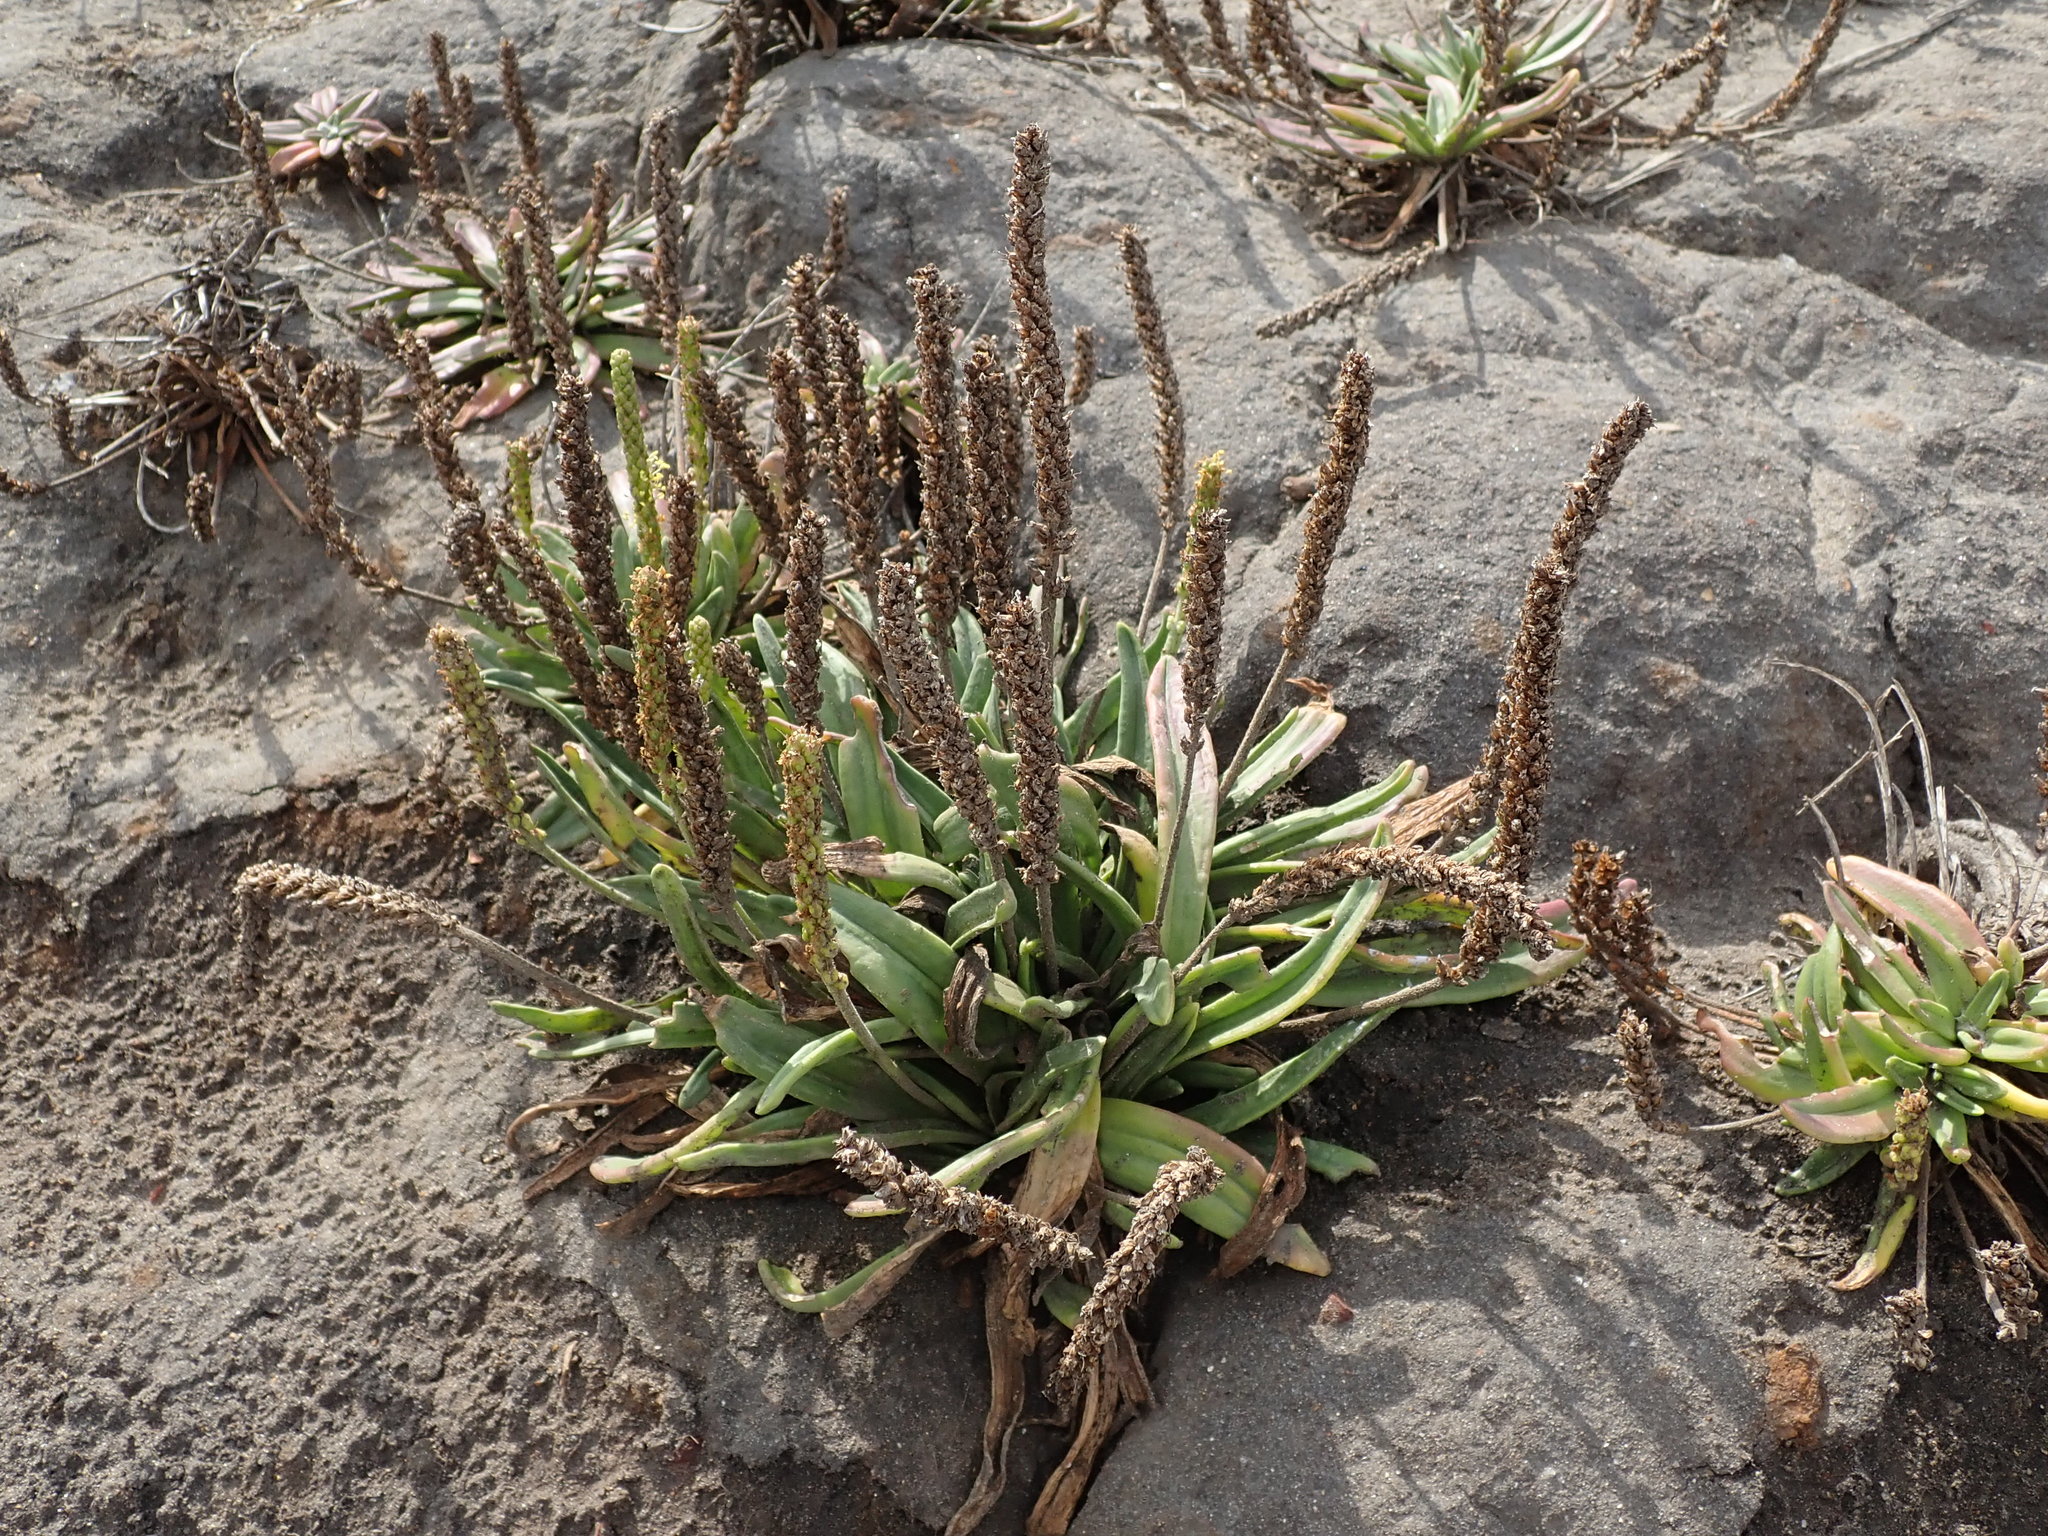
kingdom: Plantae
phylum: Tracheophyta
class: Magnoliopsida
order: Lamiales
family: Plantaginaceae
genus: Plantago
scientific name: Plantago maritima
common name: Sea plantain
